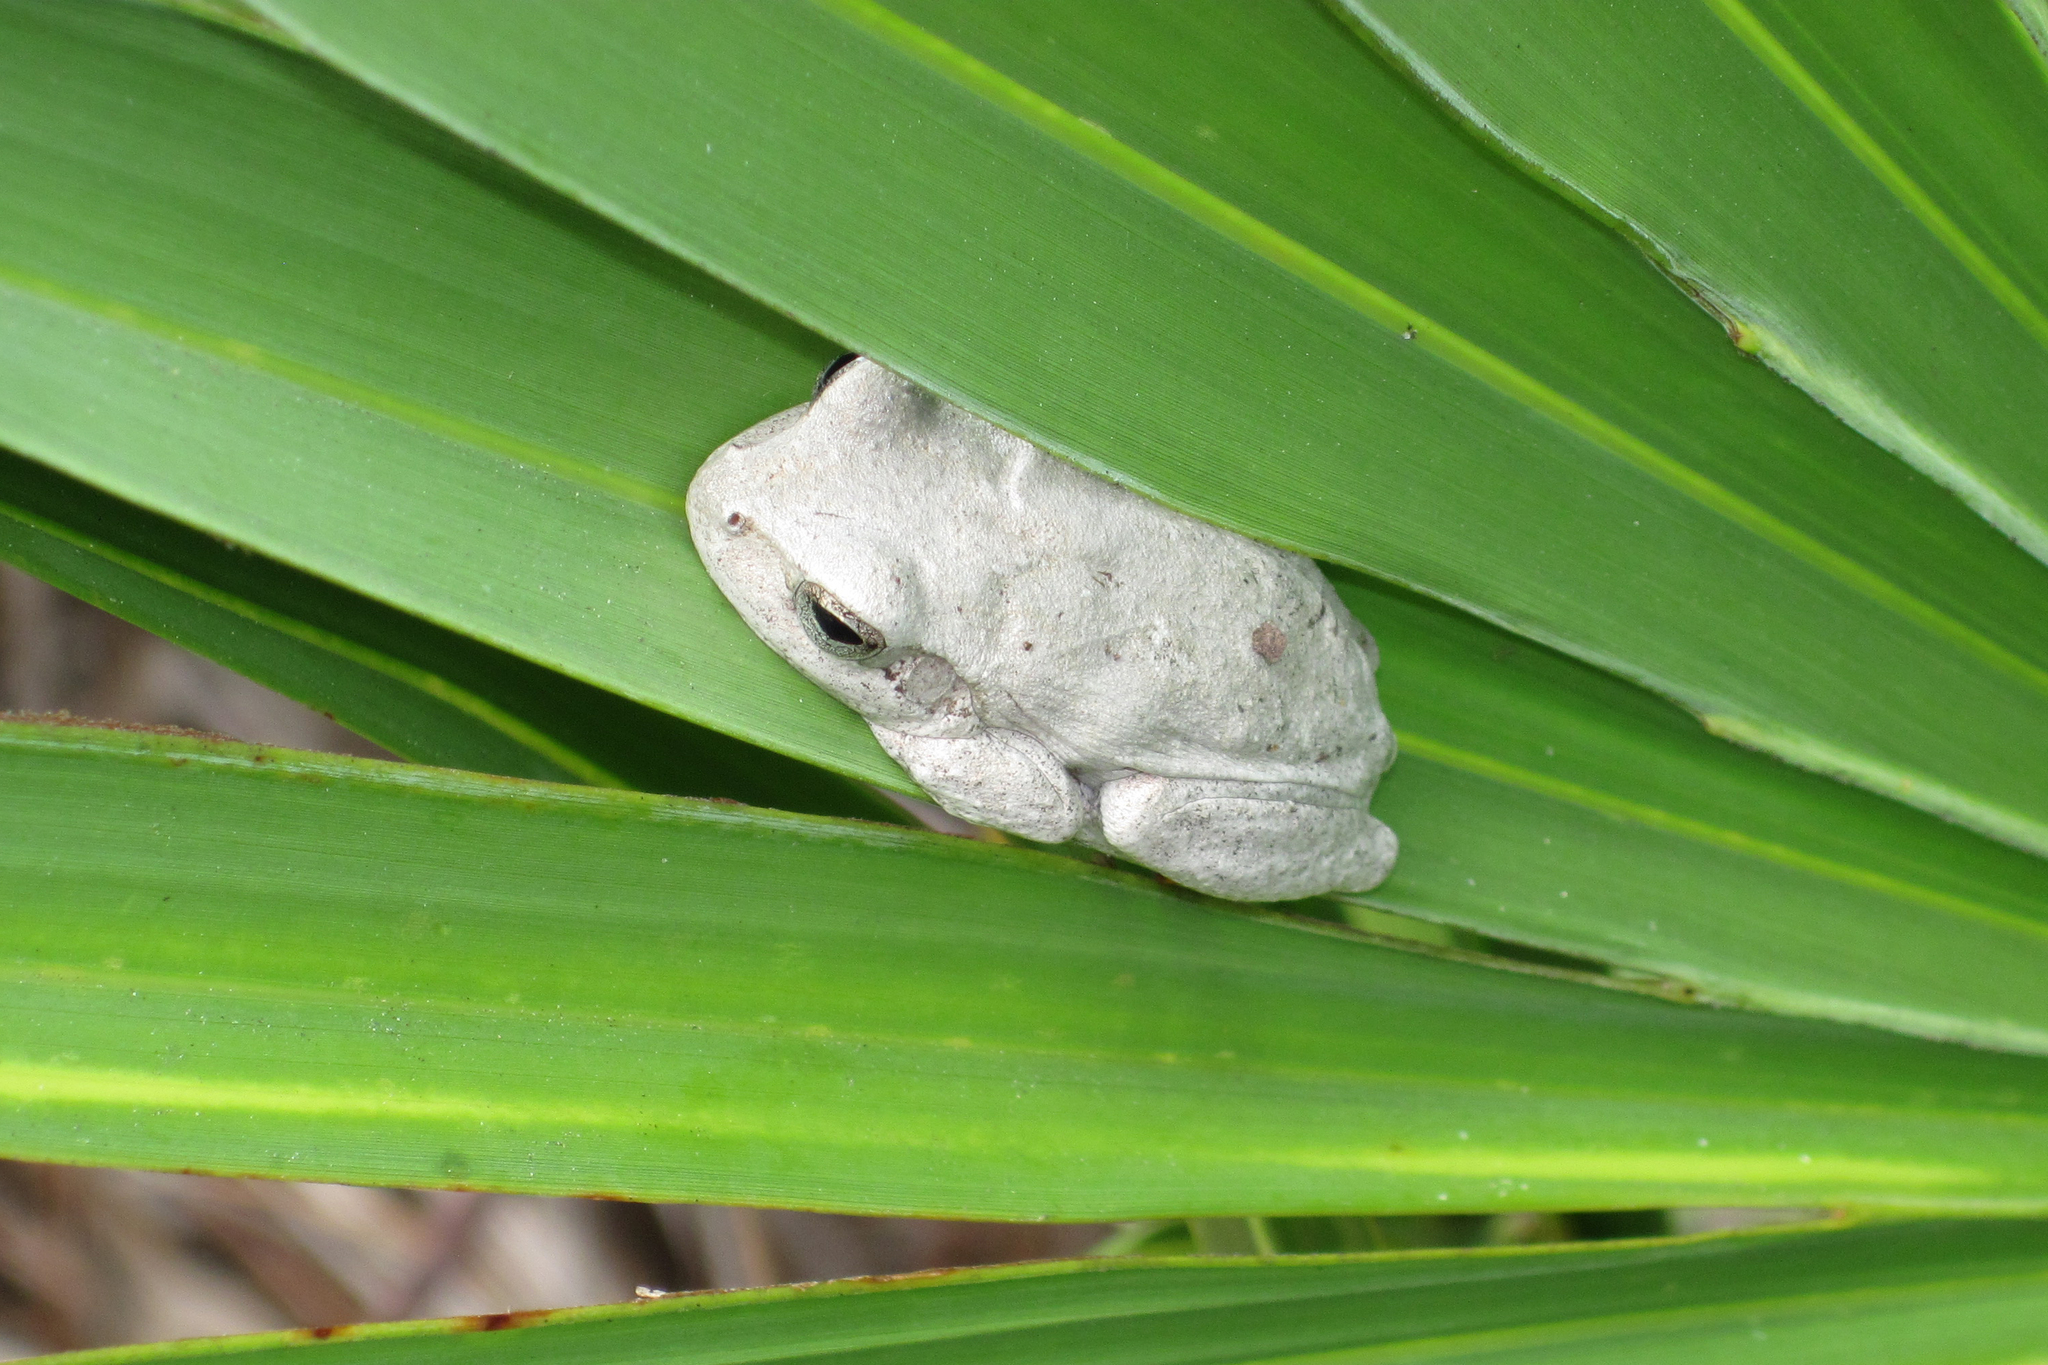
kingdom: Animalia
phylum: Chordata
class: Amphibia
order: Anura
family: Hylidae
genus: Hyla
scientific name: Hyla femoralis
